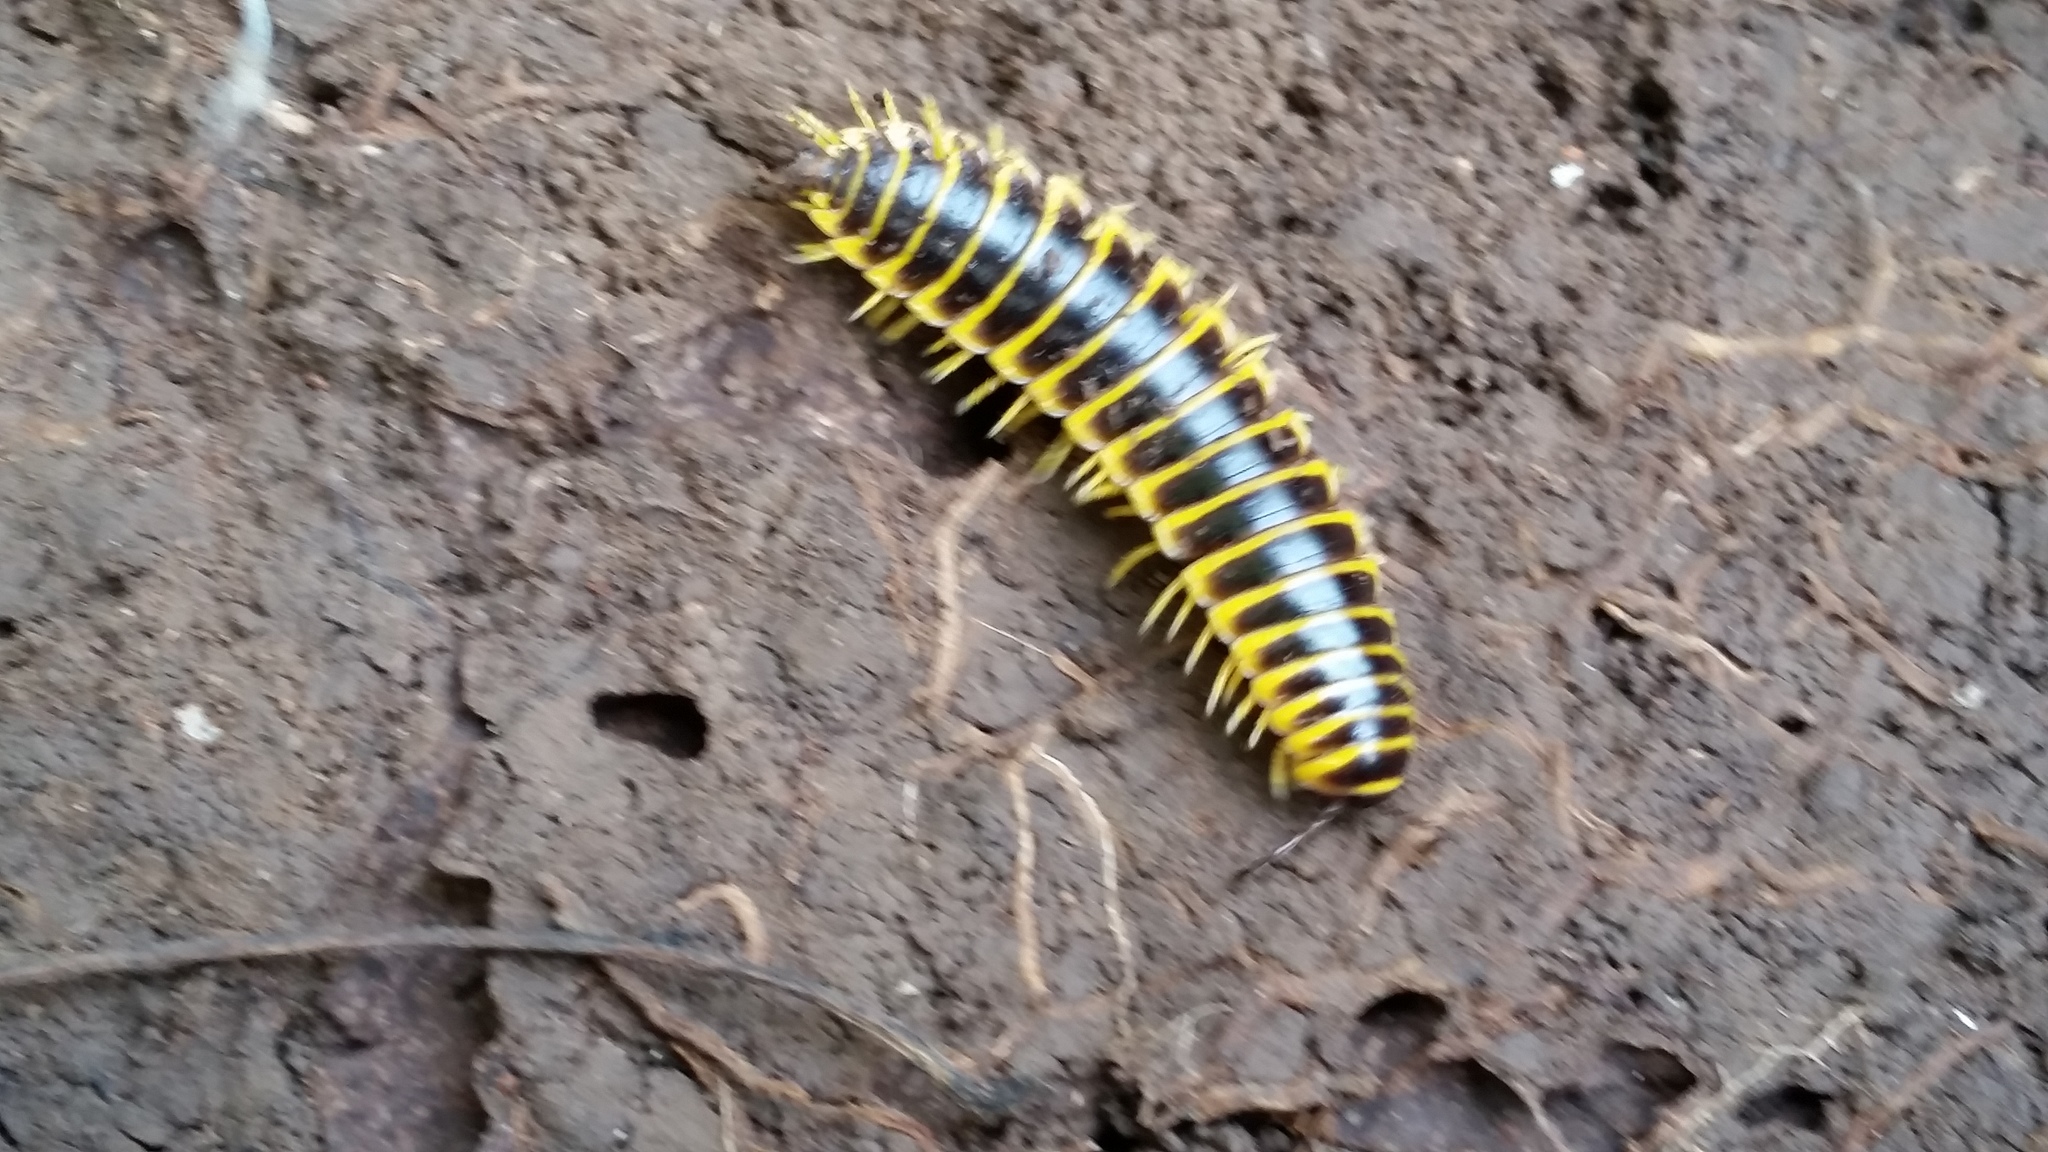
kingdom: Animalia
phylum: Arthropoda
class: Diplopoda
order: Polydesmida
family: Xystodesmidae
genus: Apheloria
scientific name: Apheloria virginiensis
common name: Black-and-gold flat millipede
